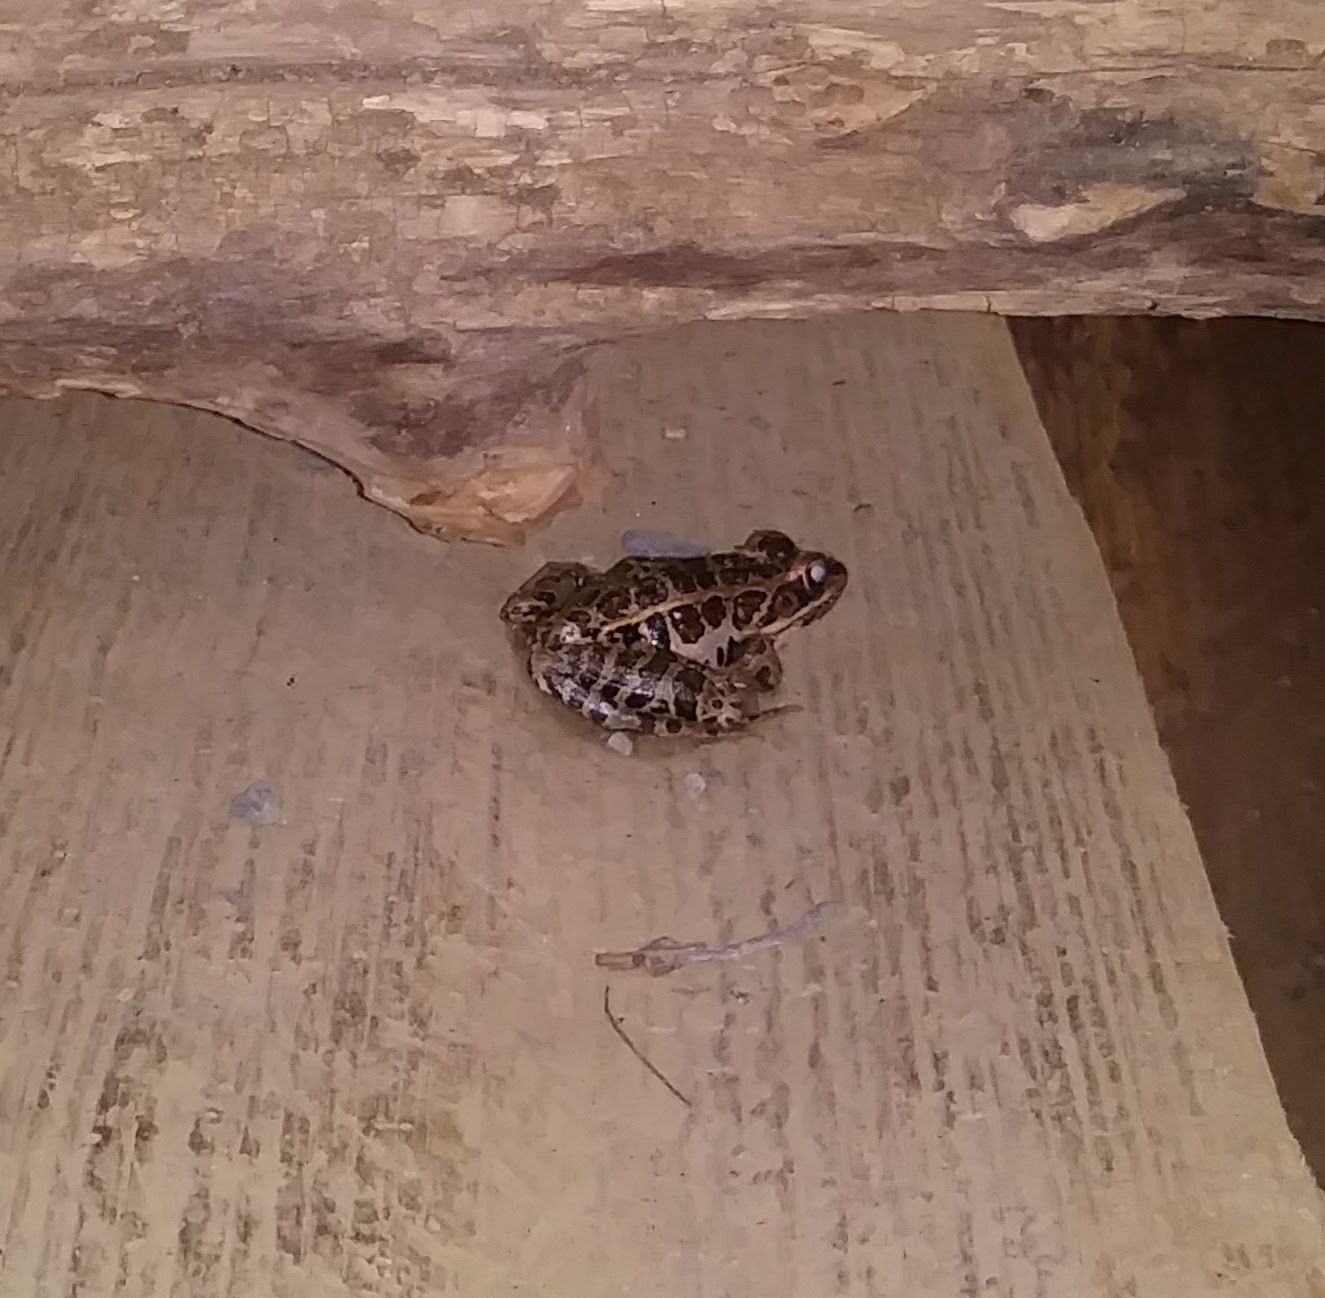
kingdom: Animalia
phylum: Chordata
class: Amphibia
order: Anura
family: Ranidae
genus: Lithobates
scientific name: Lithobates palustris
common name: Pickerel frog
